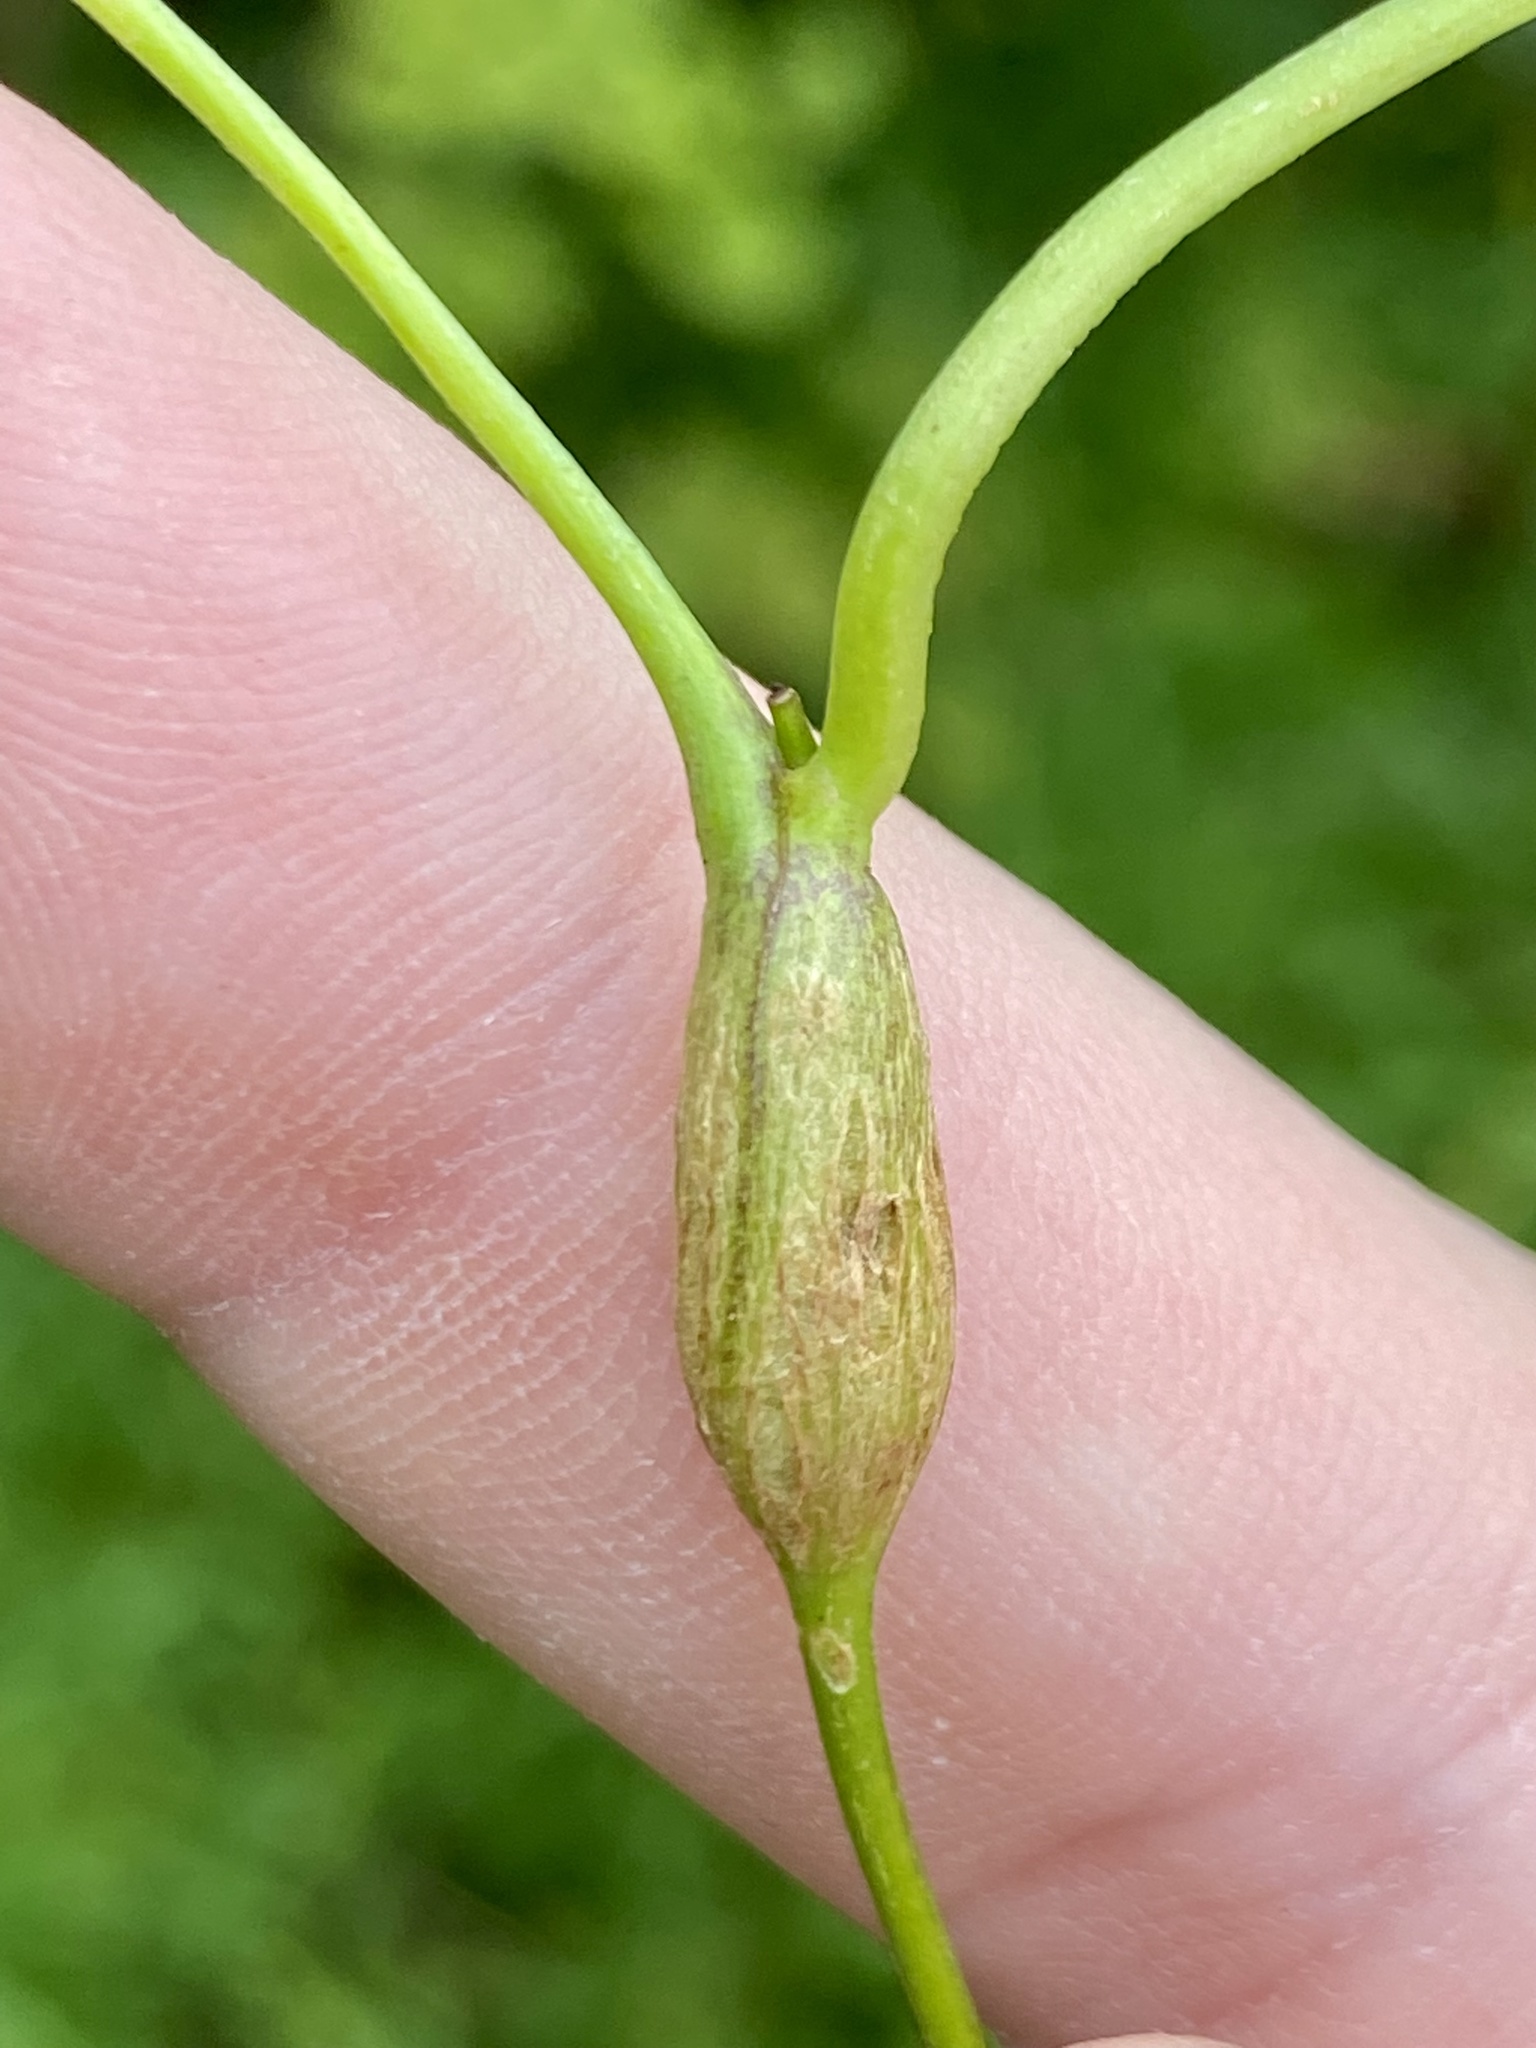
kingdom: Animalia
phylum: Arthropoda
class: Insecta
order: Diptera
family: Cecidomyiidae
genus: Neolasioptera
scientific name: Neolasioptera convolvuli
